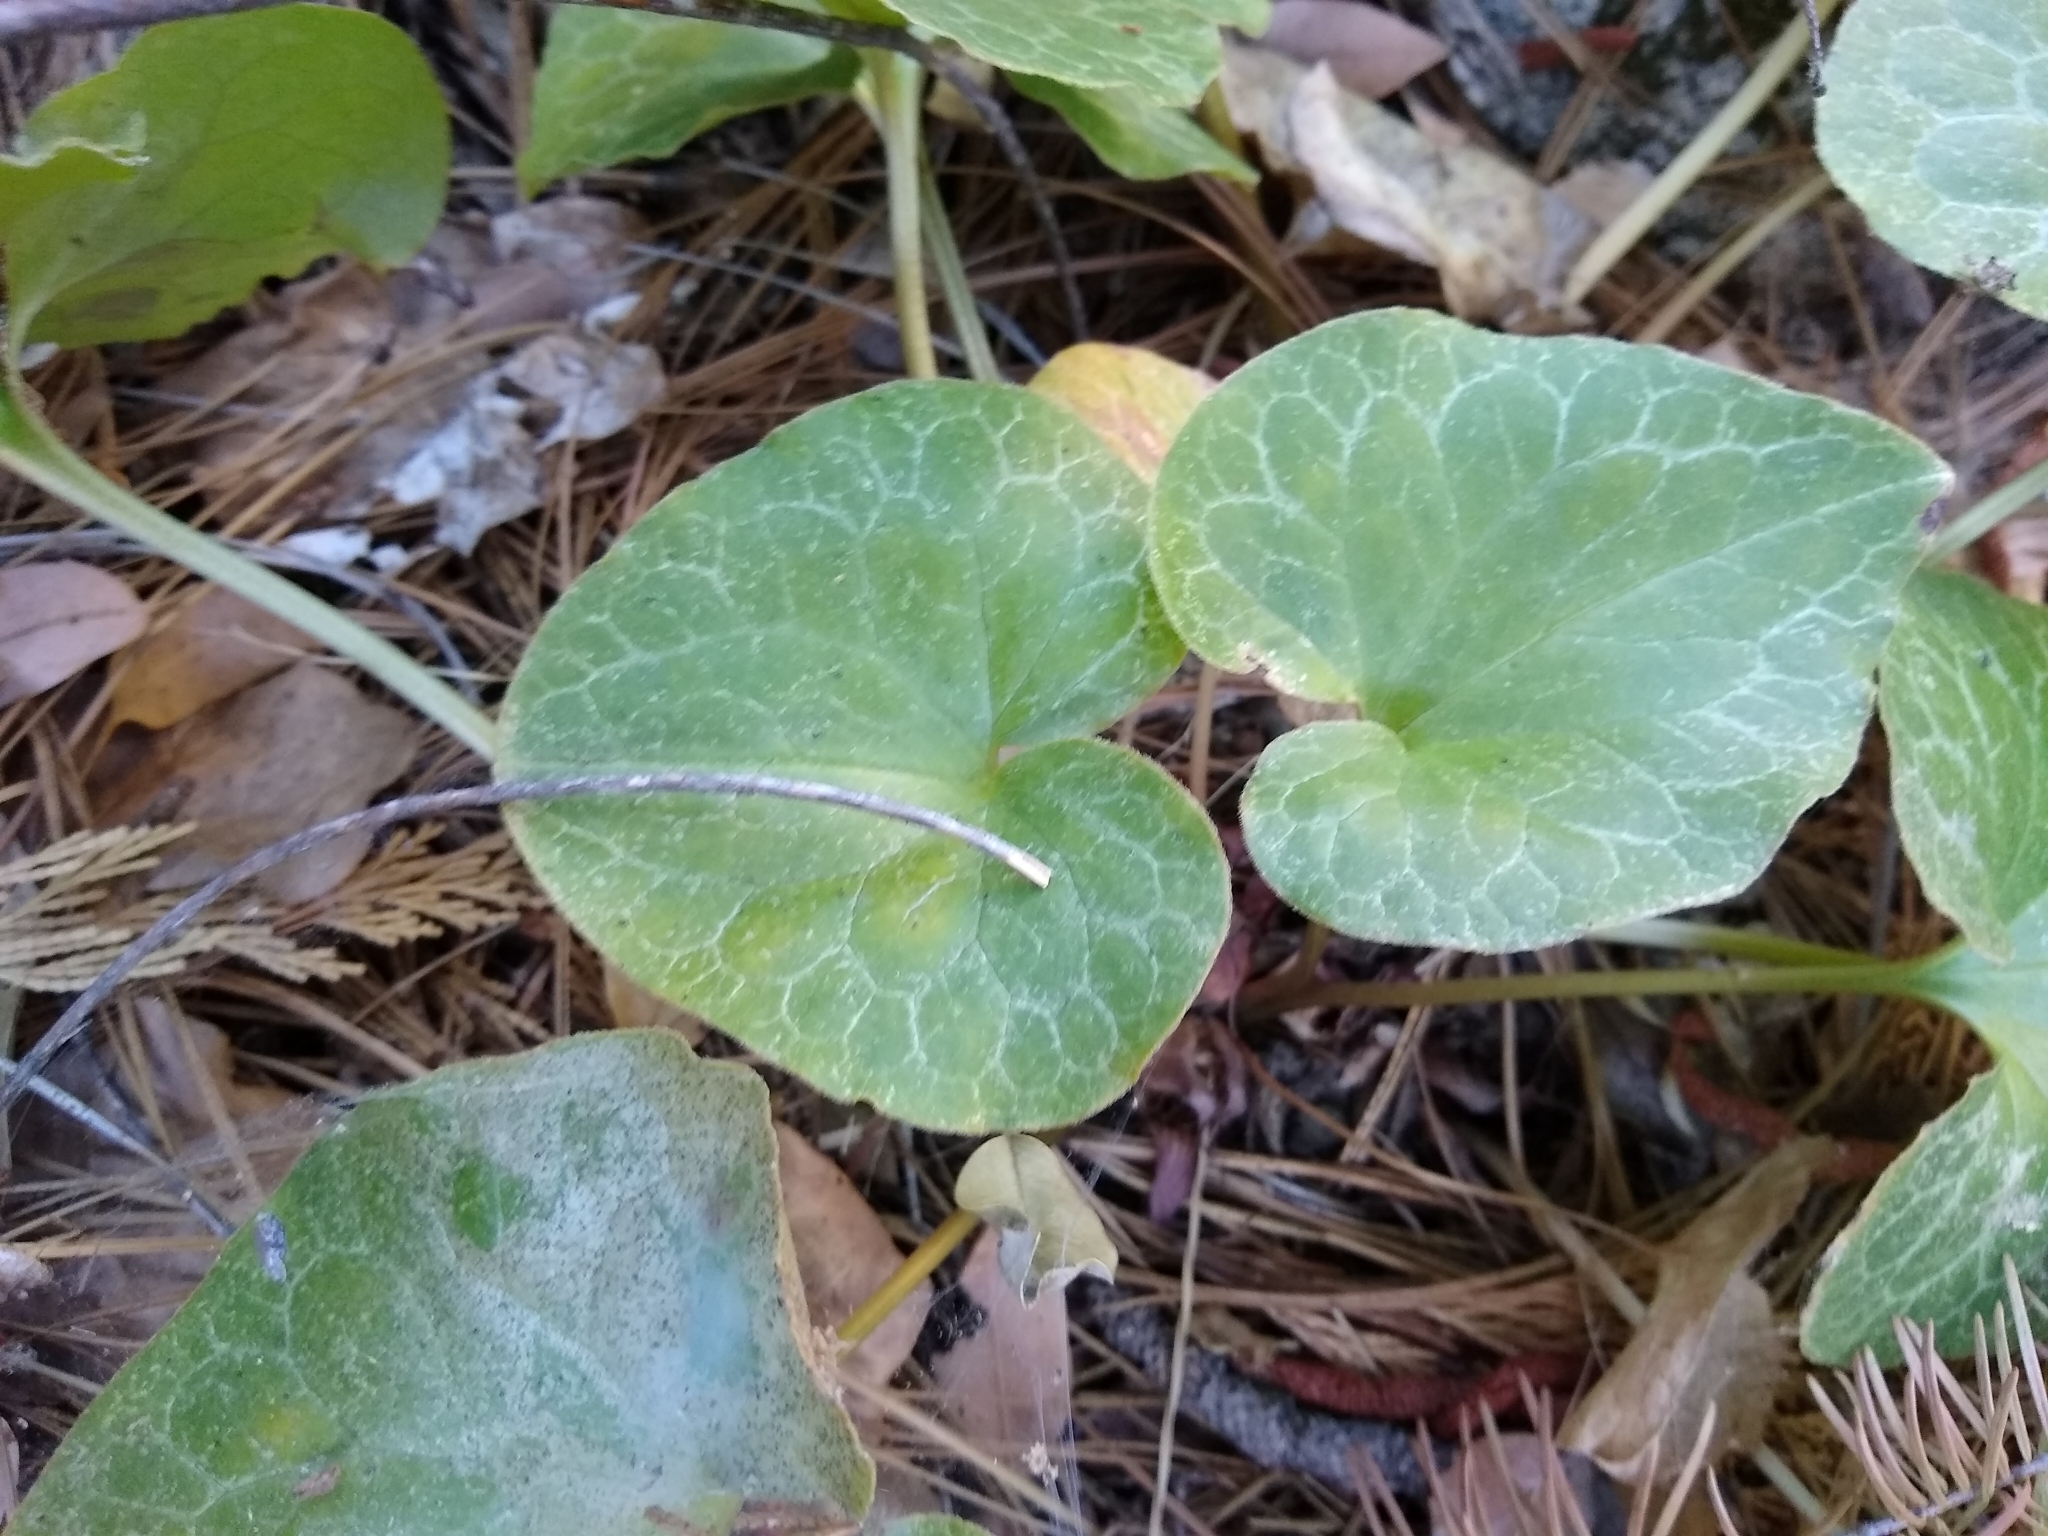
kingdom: Plantae
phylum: Tracheophyta
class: Magnoliopsida
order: Piperales
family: Aristolochiaceae
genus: Asarum
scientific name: Asarum hartwegii
